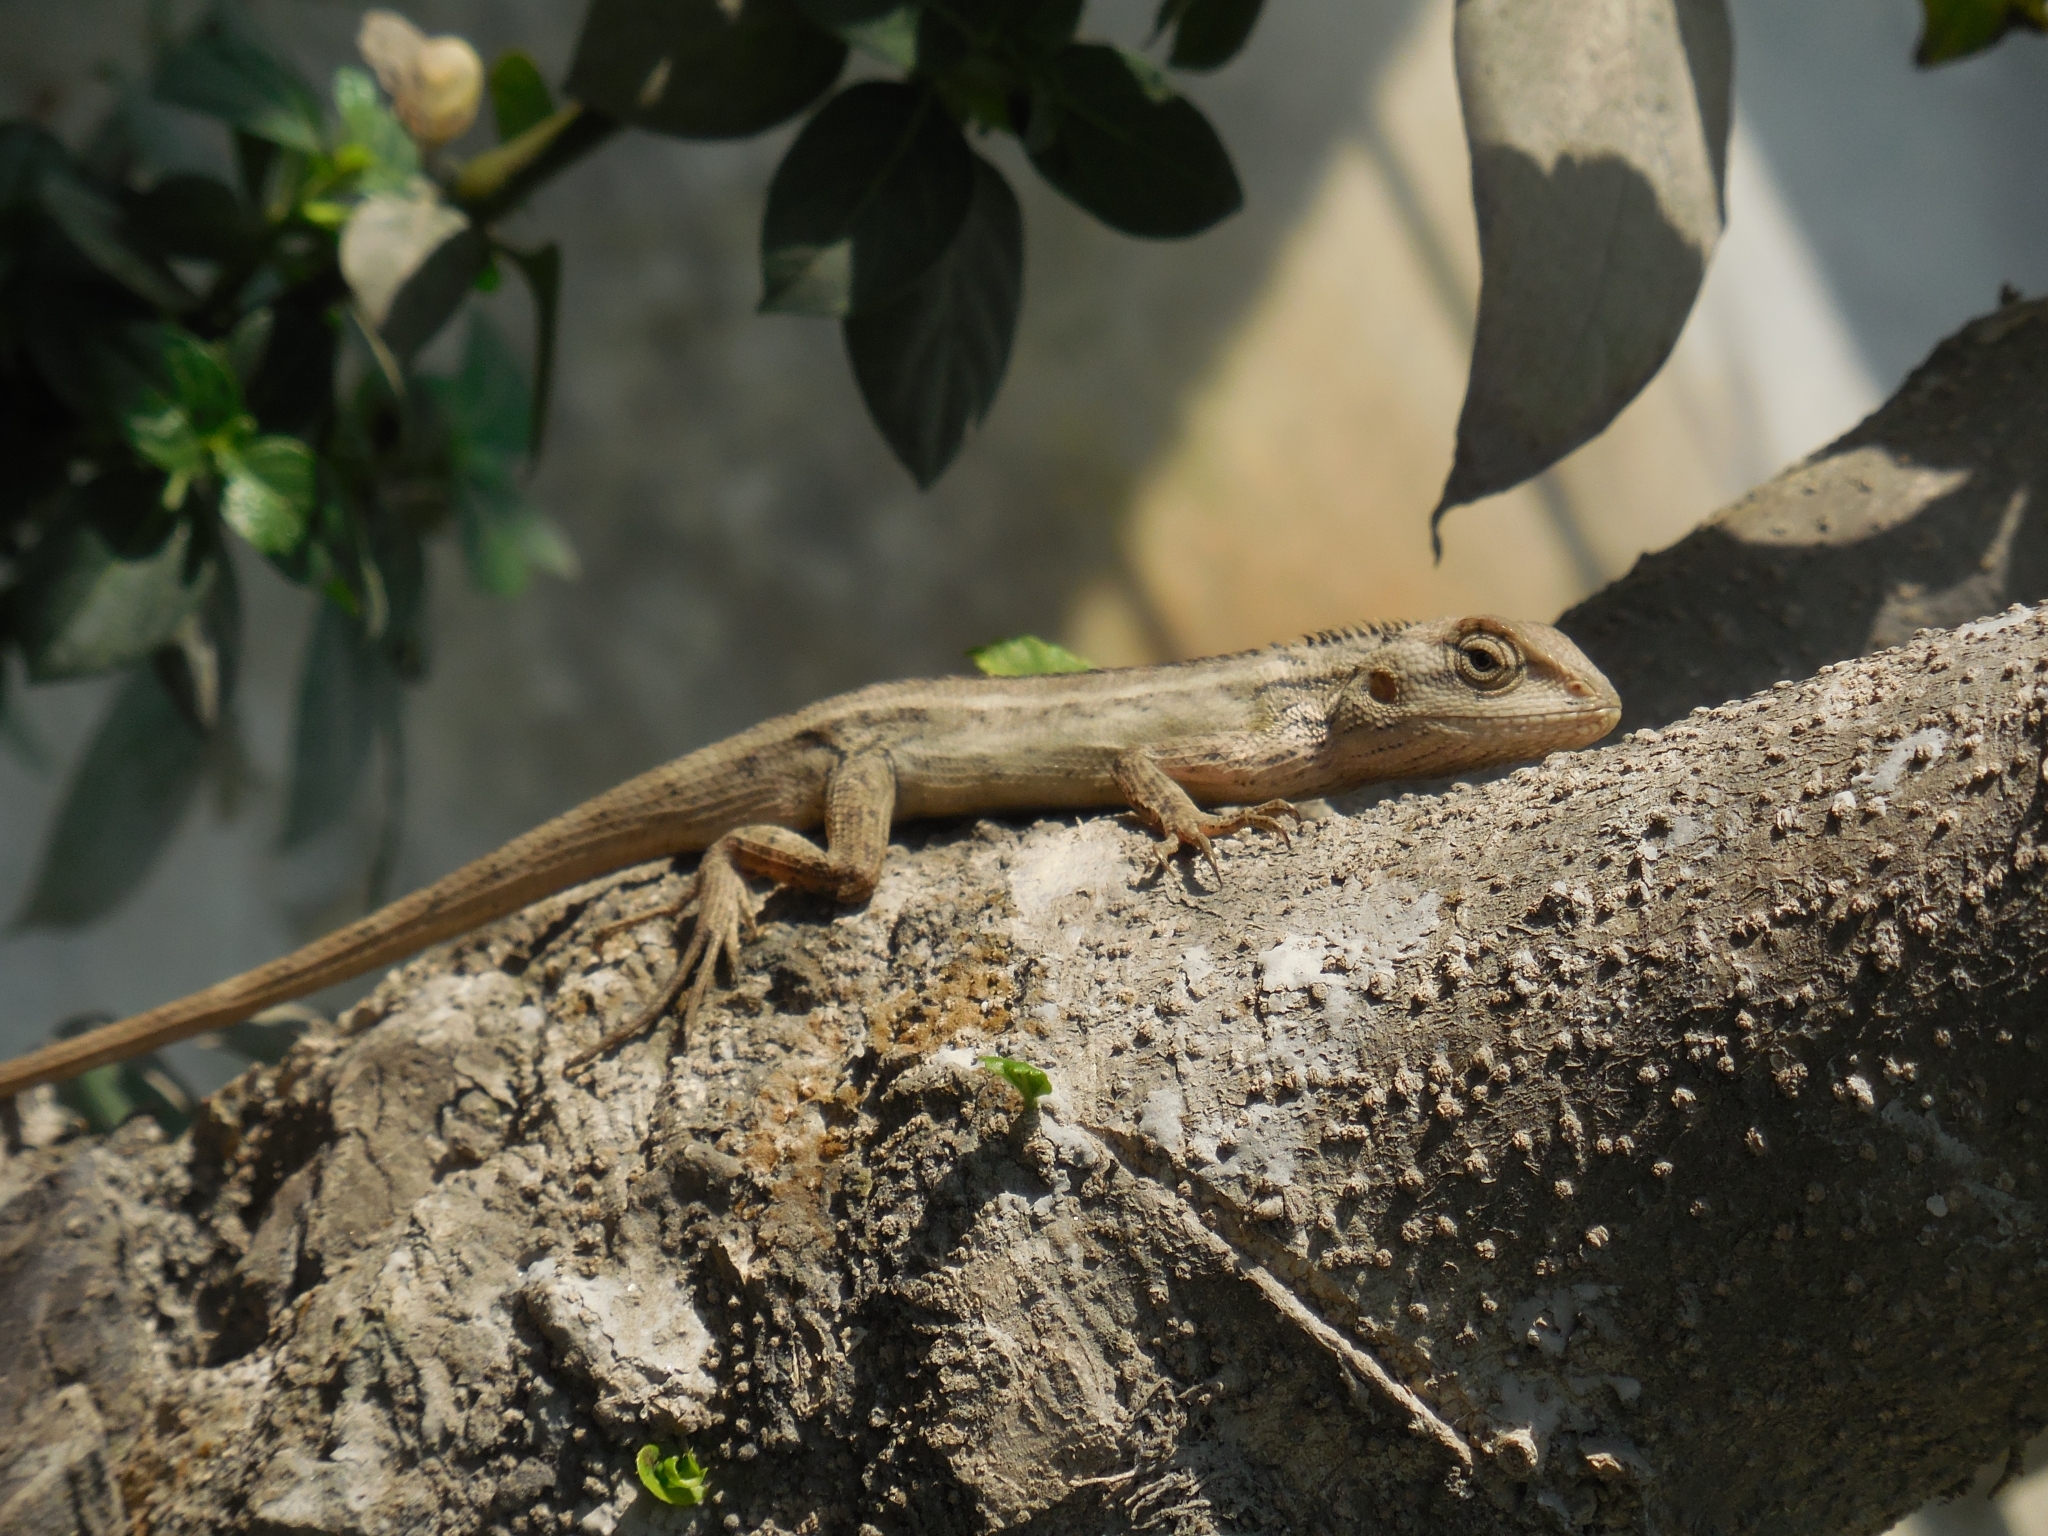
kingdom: Animalia
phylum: Chordata
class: Squamata
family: Agamidae
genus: Calotes
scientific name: Calotes versicolor
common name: Oriental garden lizard
